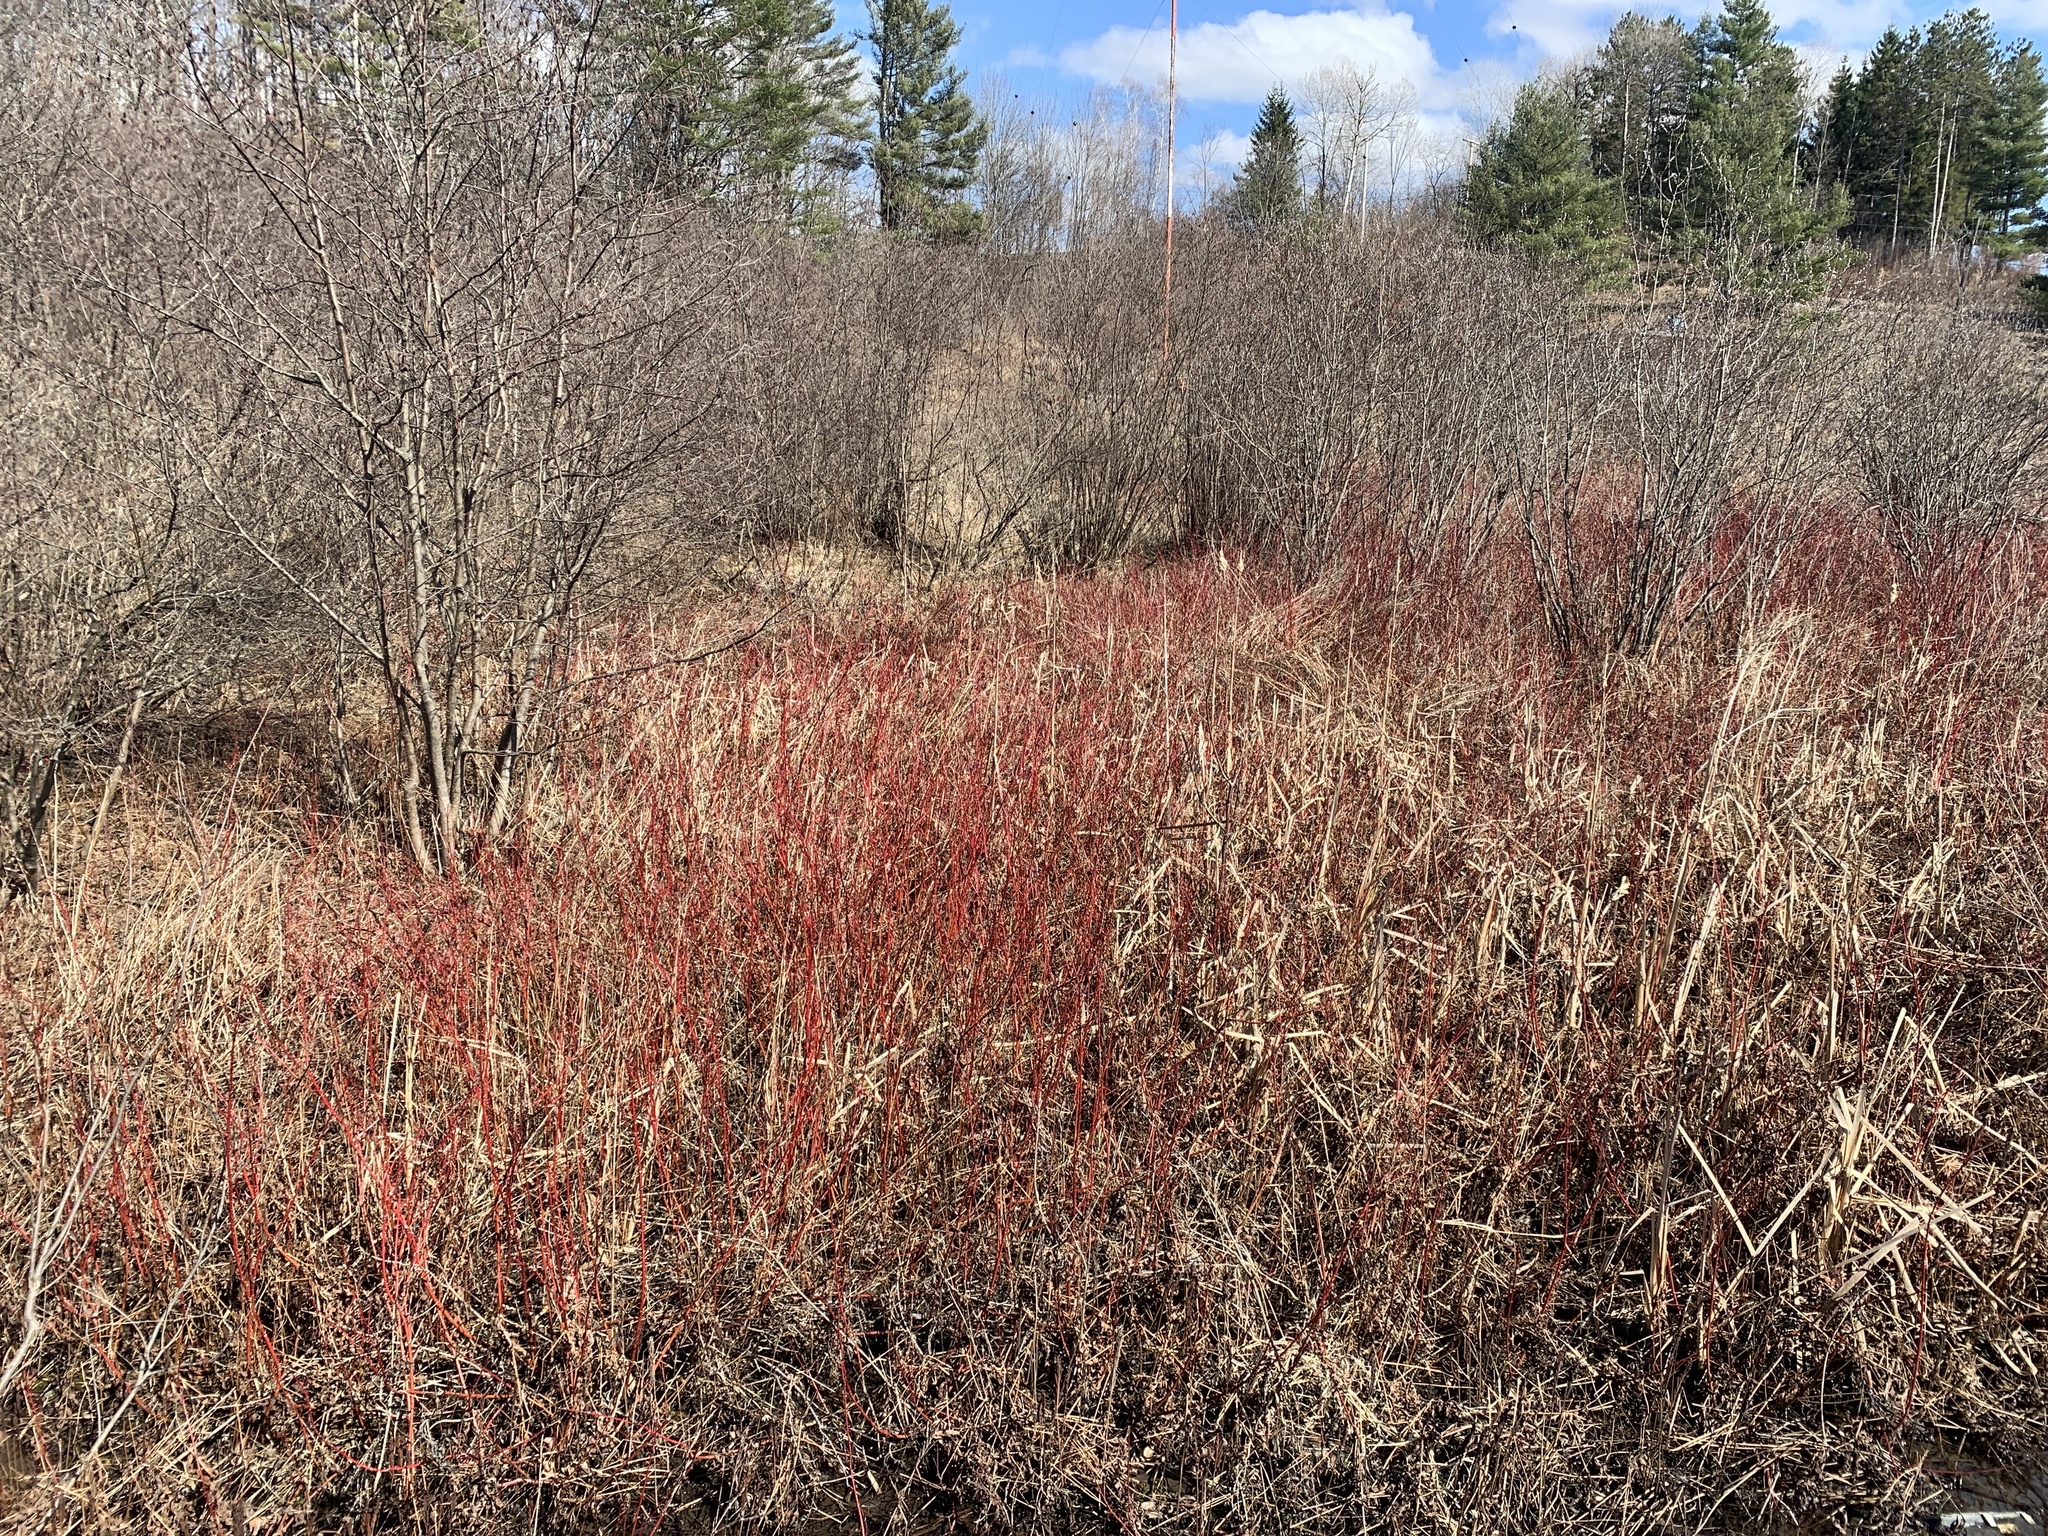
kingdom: Plantae
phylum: Tracheophyta
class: Magnoliopsida
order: Cornales
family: Cornaceae
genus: Cornus
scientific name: Cornus sericea
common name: Red-osier dogwood
